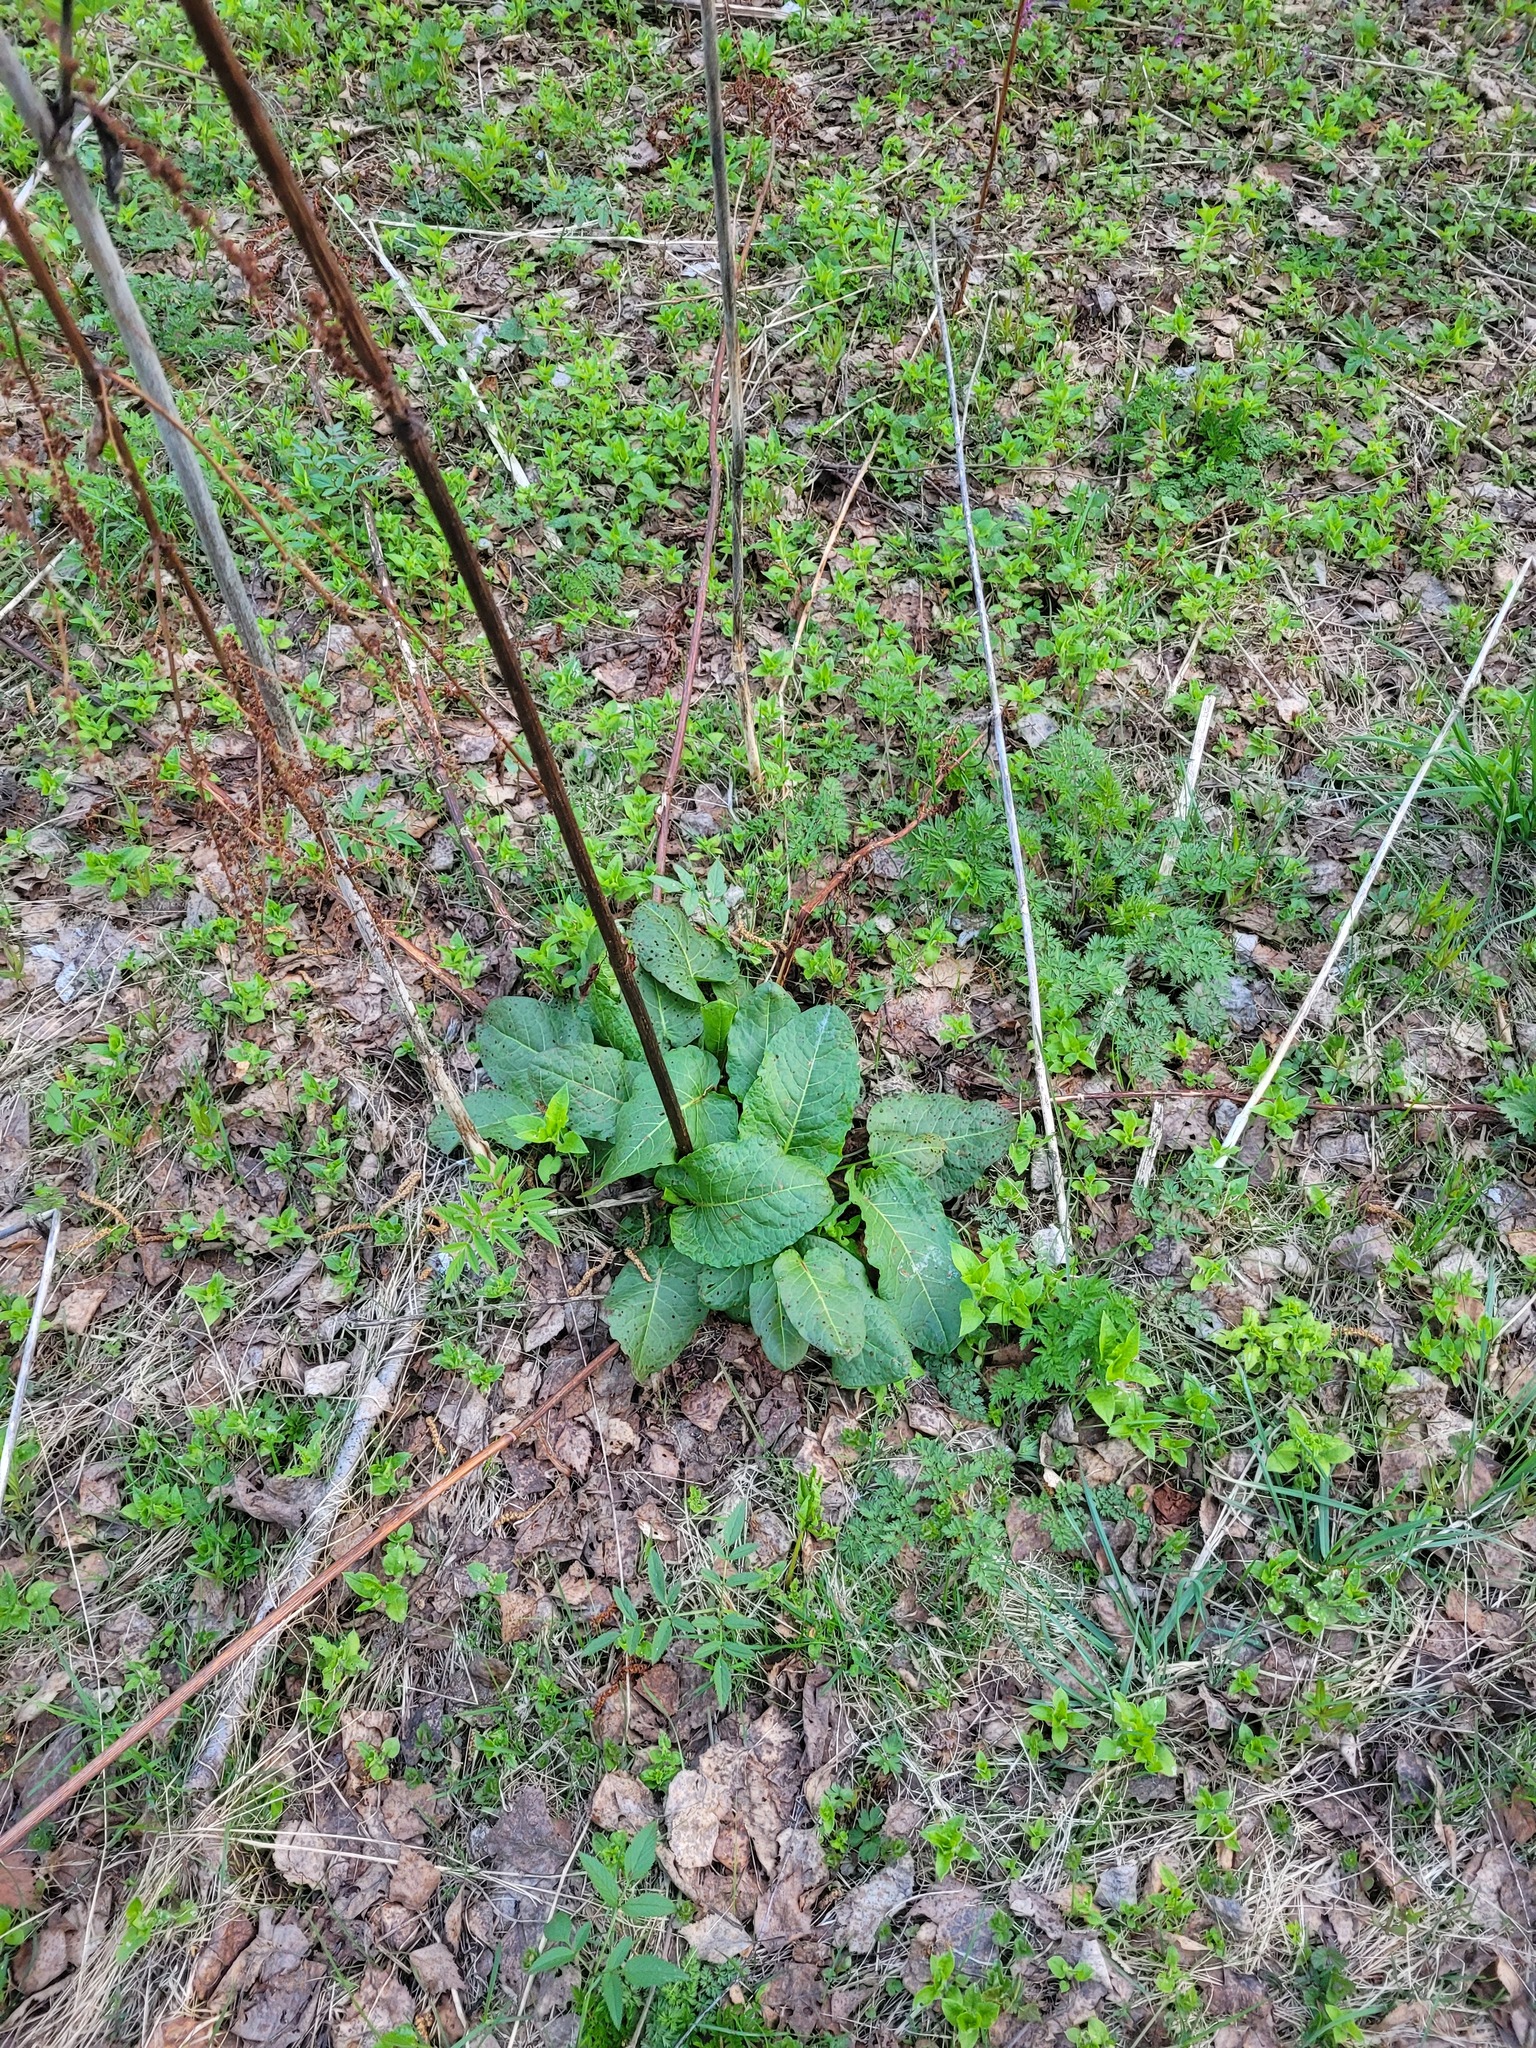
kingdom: Plantae
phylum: Tracheophyta
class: Magnoliopsida
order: Caryophyllales
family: Polygonaceae
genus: Rumex
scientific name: Rumex obtusifolius
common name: Bitter dock
